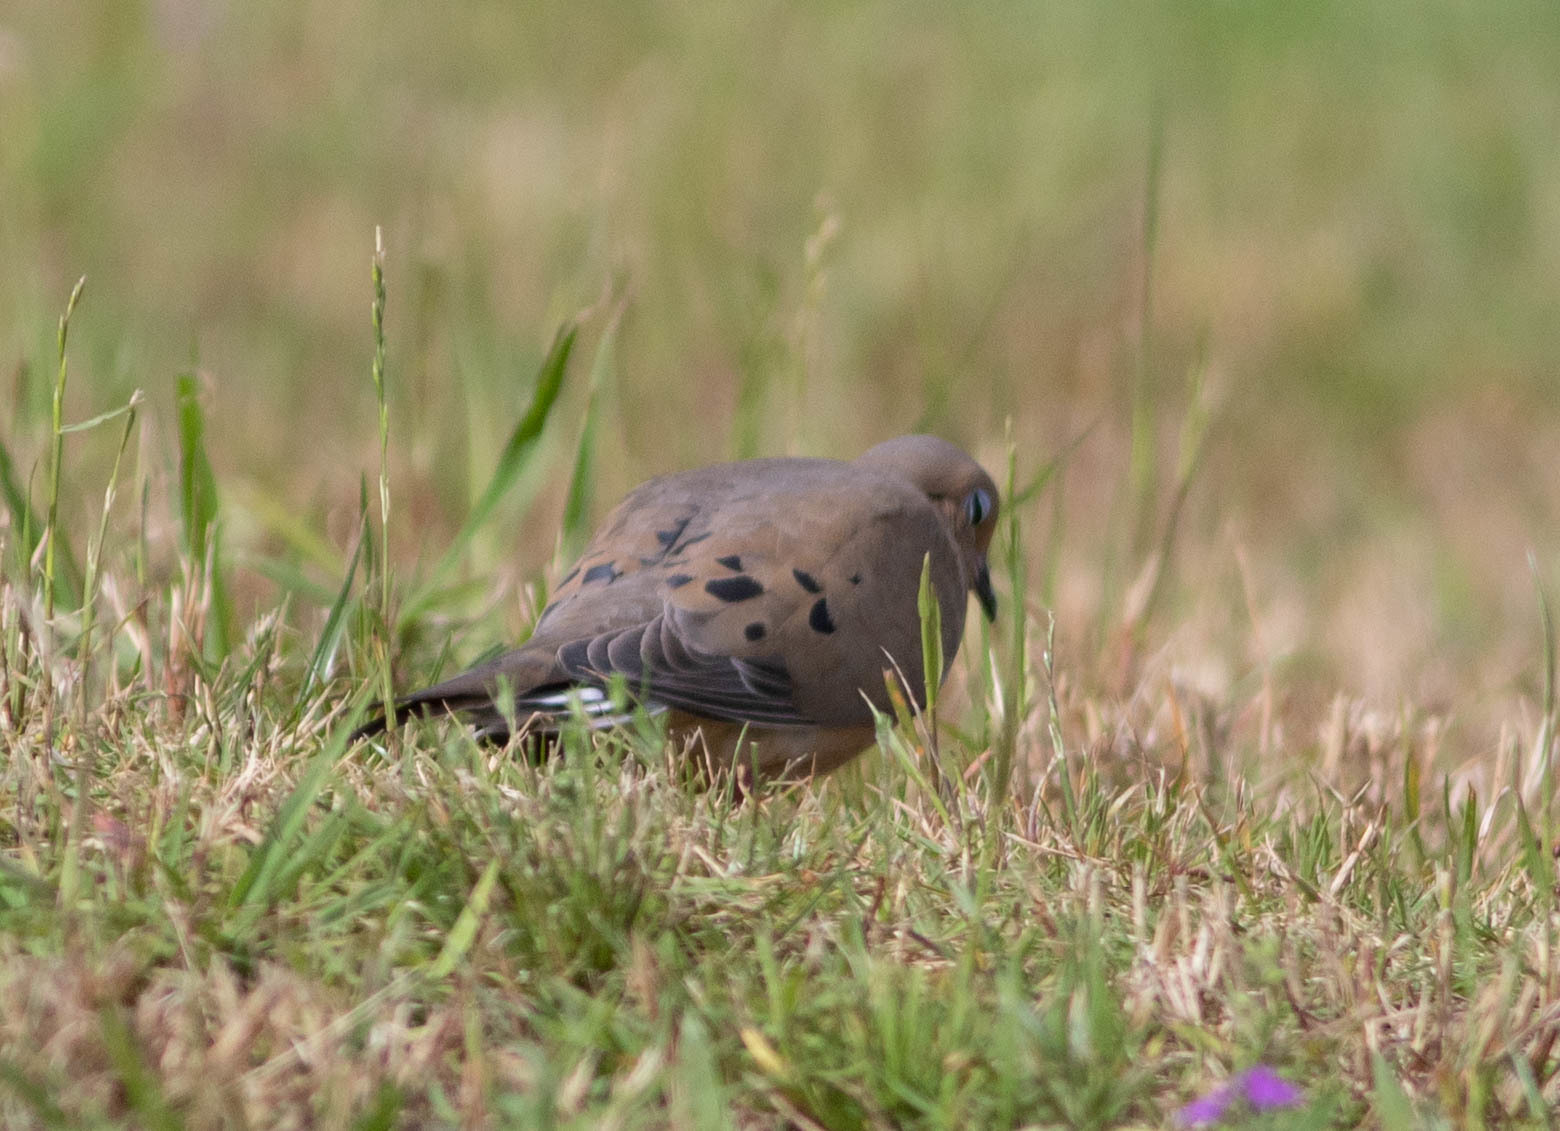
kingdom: Animalia
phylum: Chordata
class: Aves
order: Columbiformes
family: Columbidae
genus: Zenaida
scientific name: Zenaida macroura
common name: Mourning dove
